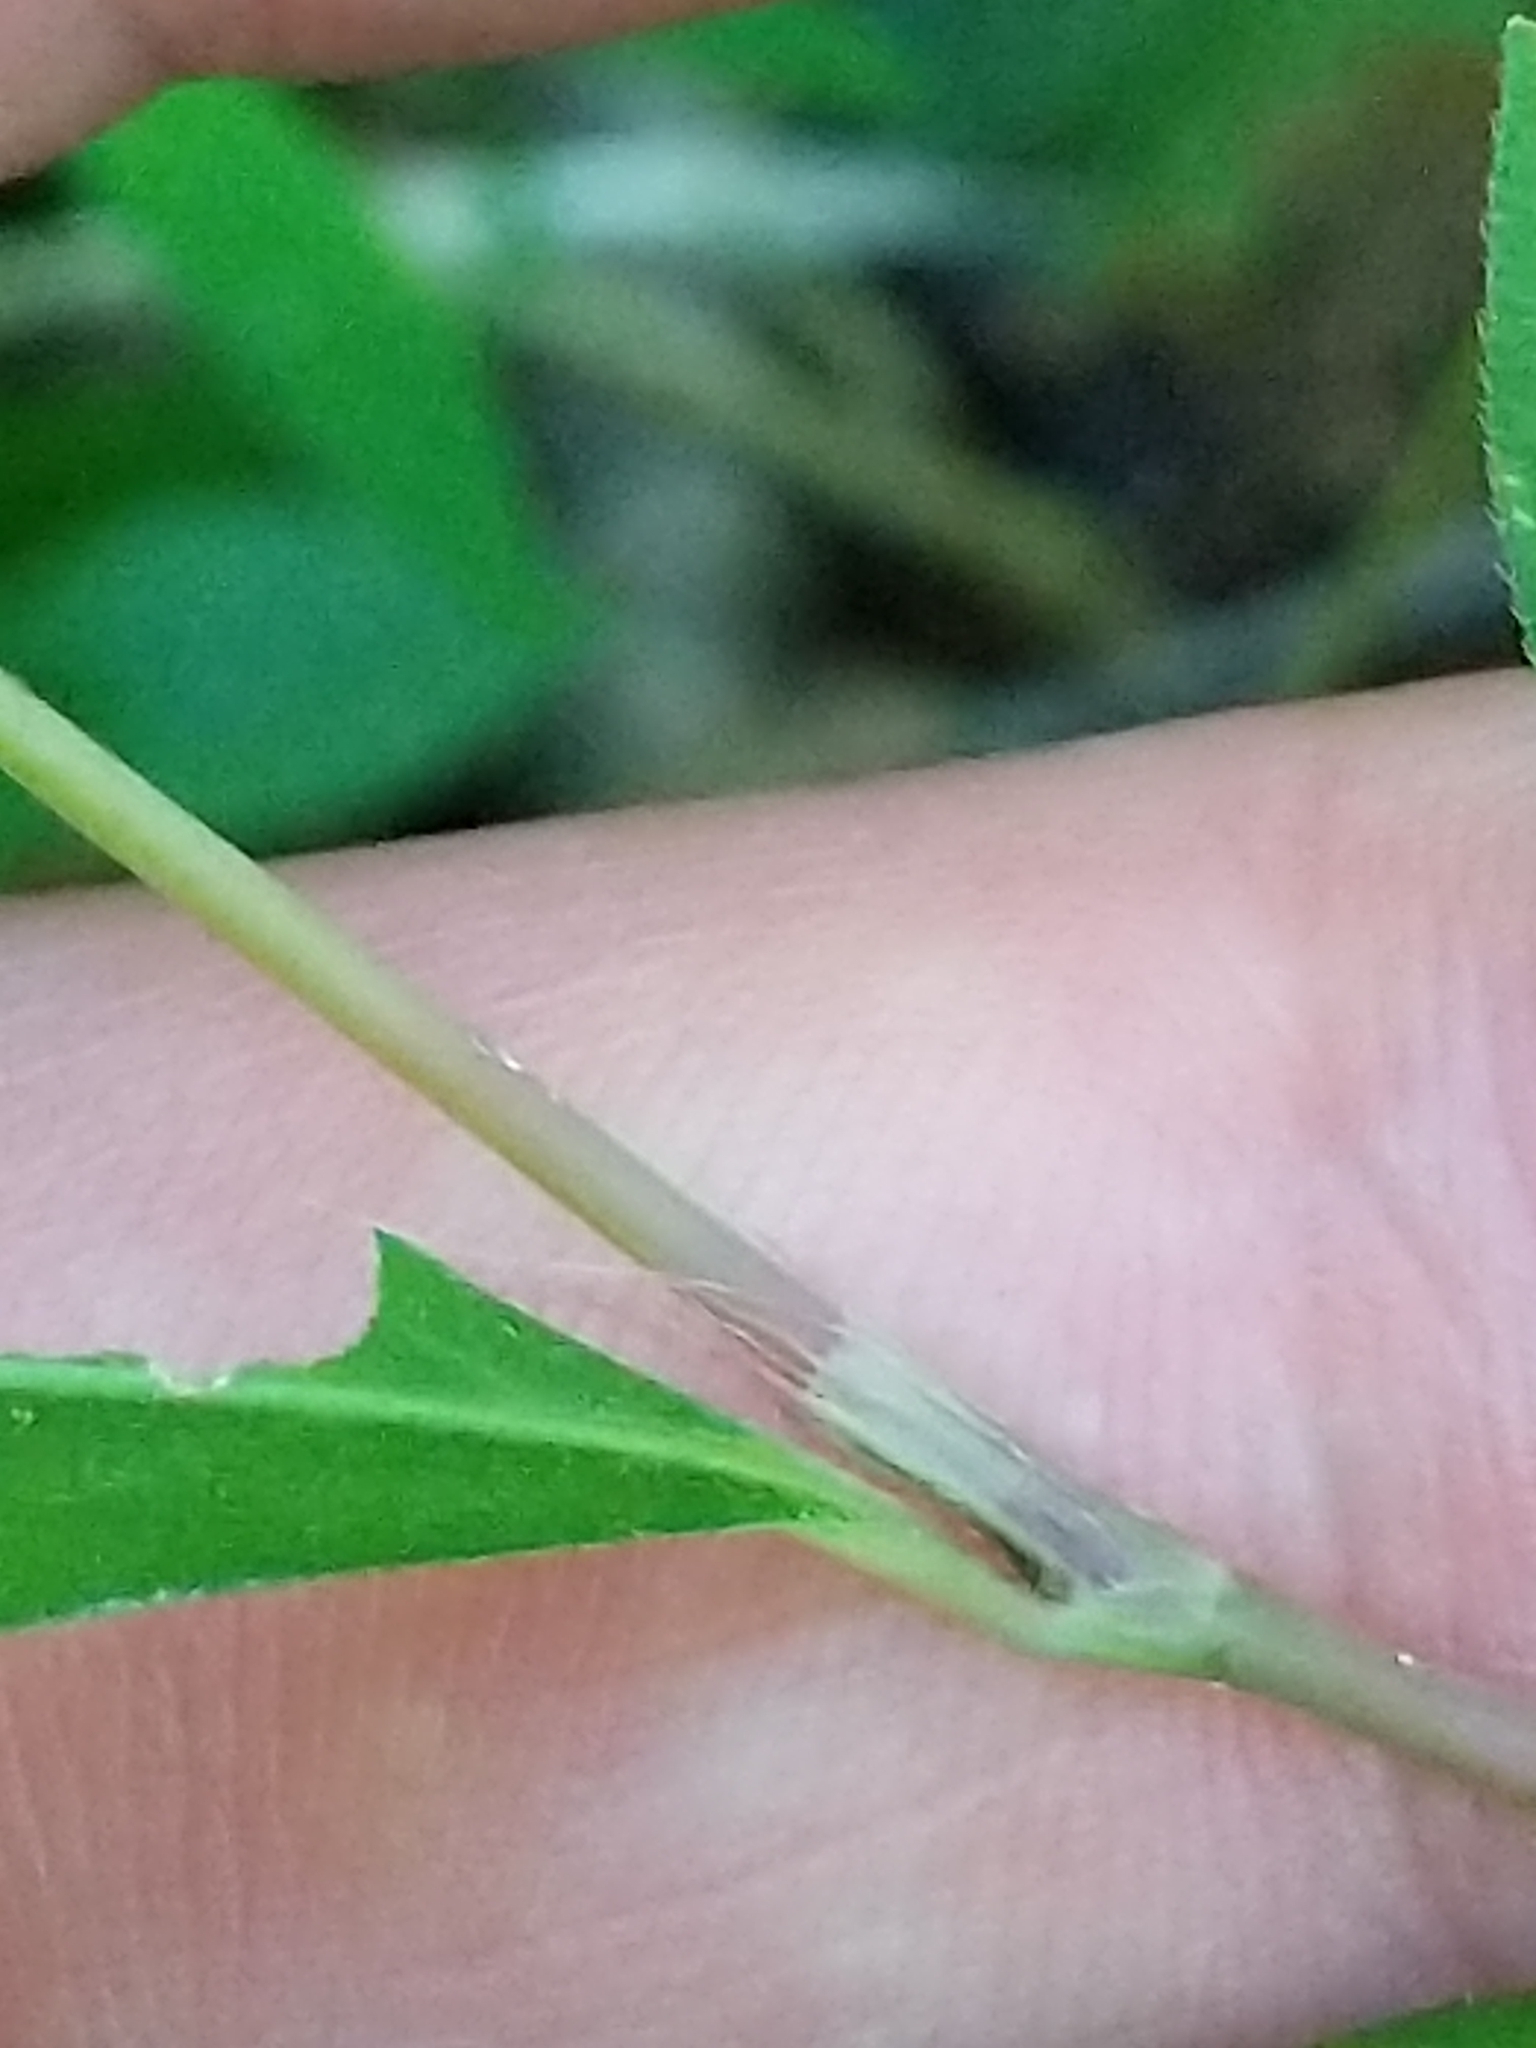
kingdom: Plantae
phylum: Tracheophyta
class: Magnoliopsida
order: Caryophyllales
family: Polygonaceae
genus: Persicaria
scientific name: Persicaria longiseta
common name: Bristly lady's-thumb
